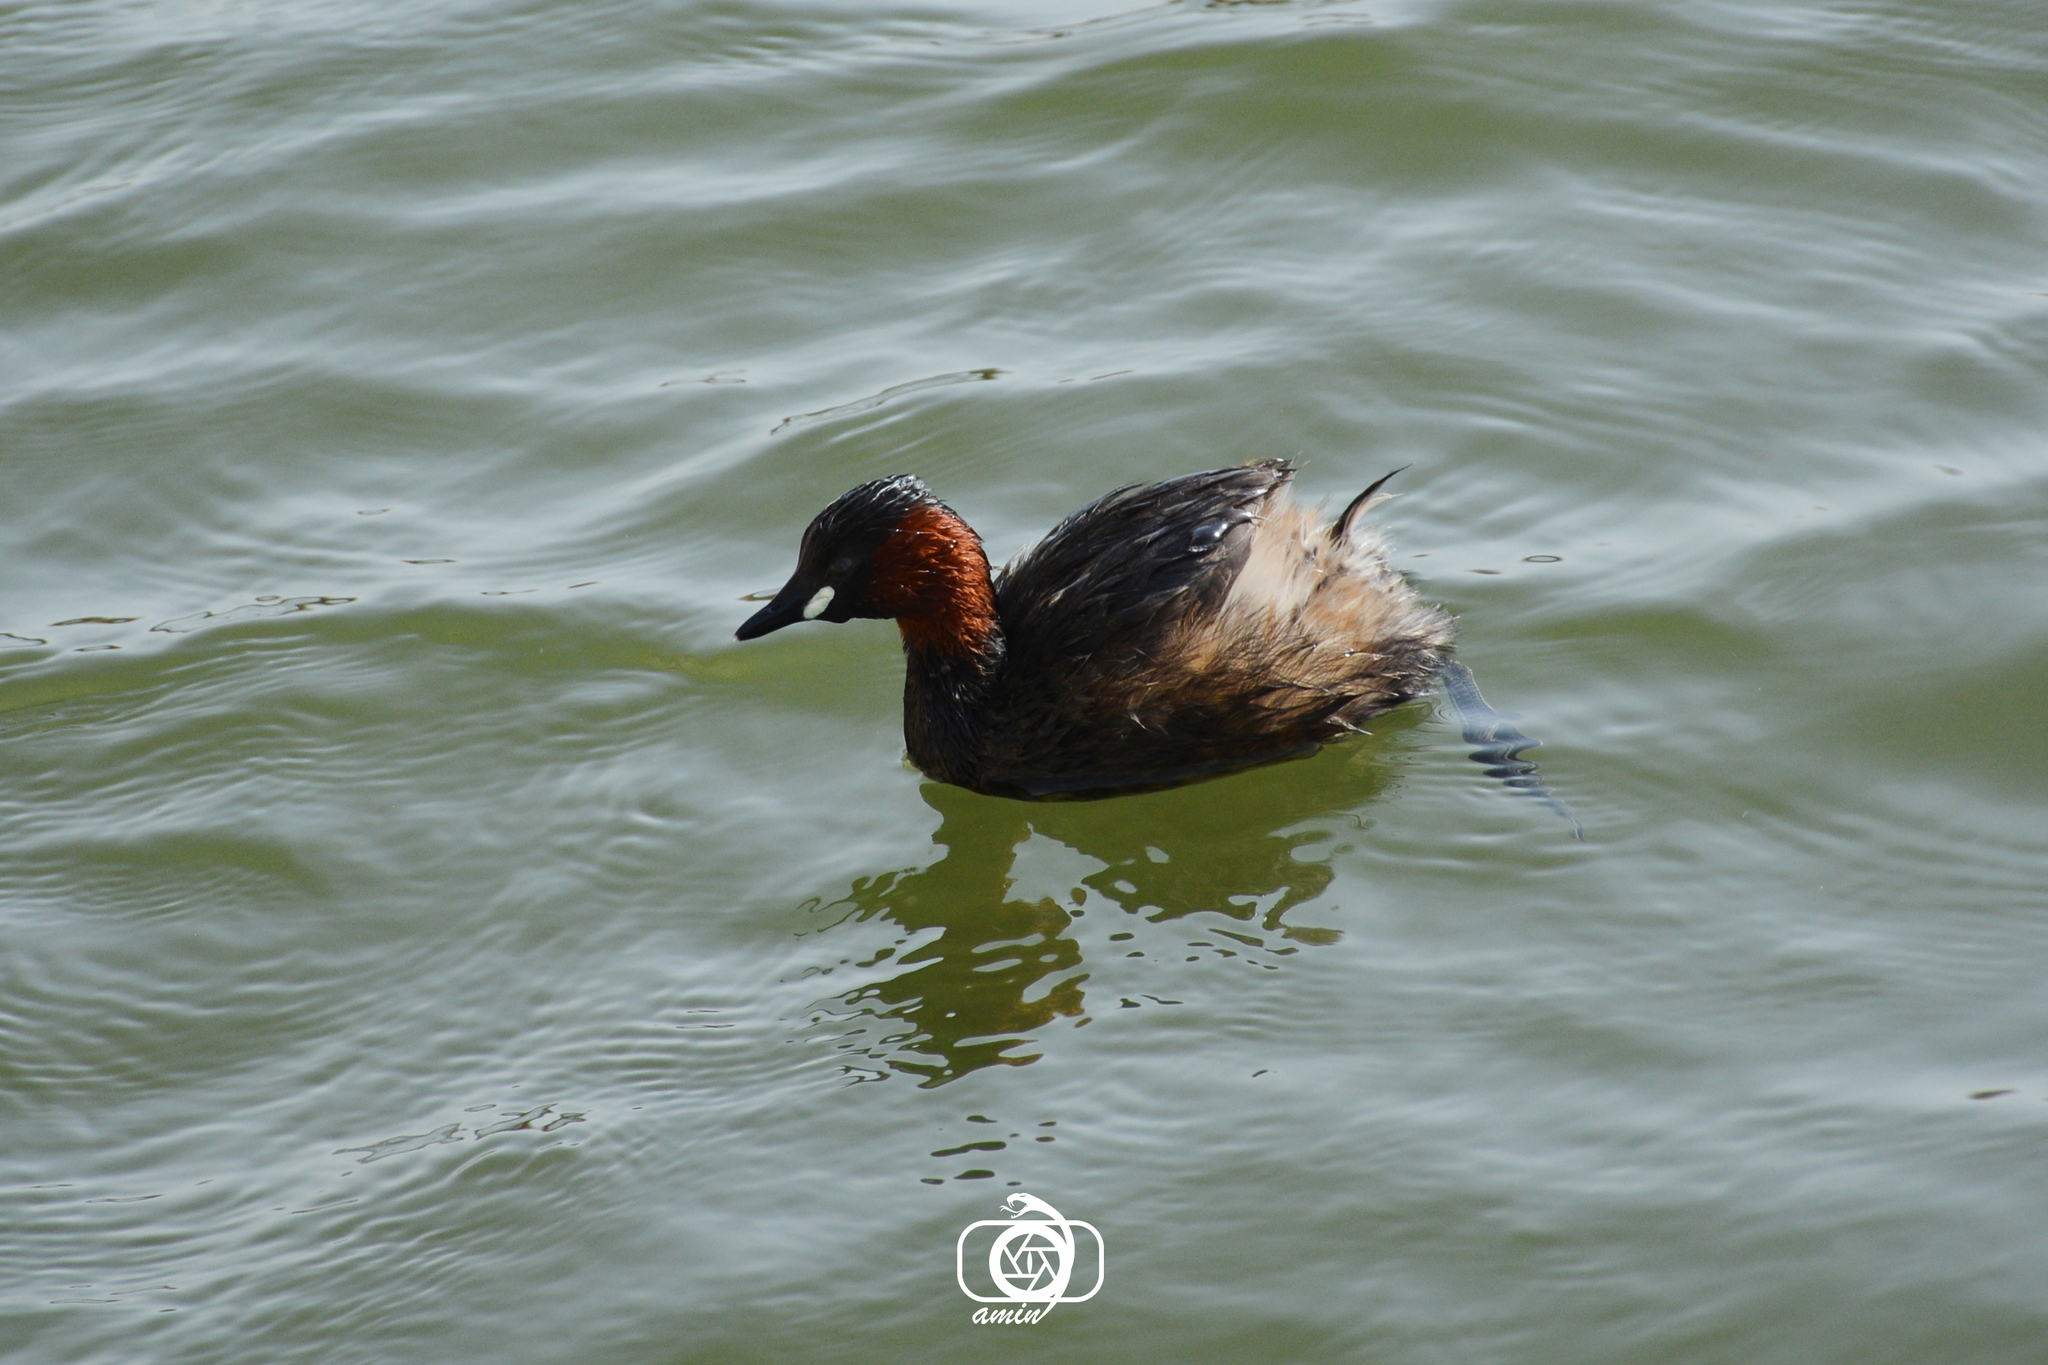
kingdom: Animalia
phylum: Chordata
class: Aves
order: Podicipediformes
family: Podicipedidae
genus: Tachybaptus
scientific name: Tachybaptus ruficollis
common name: Little grebe
